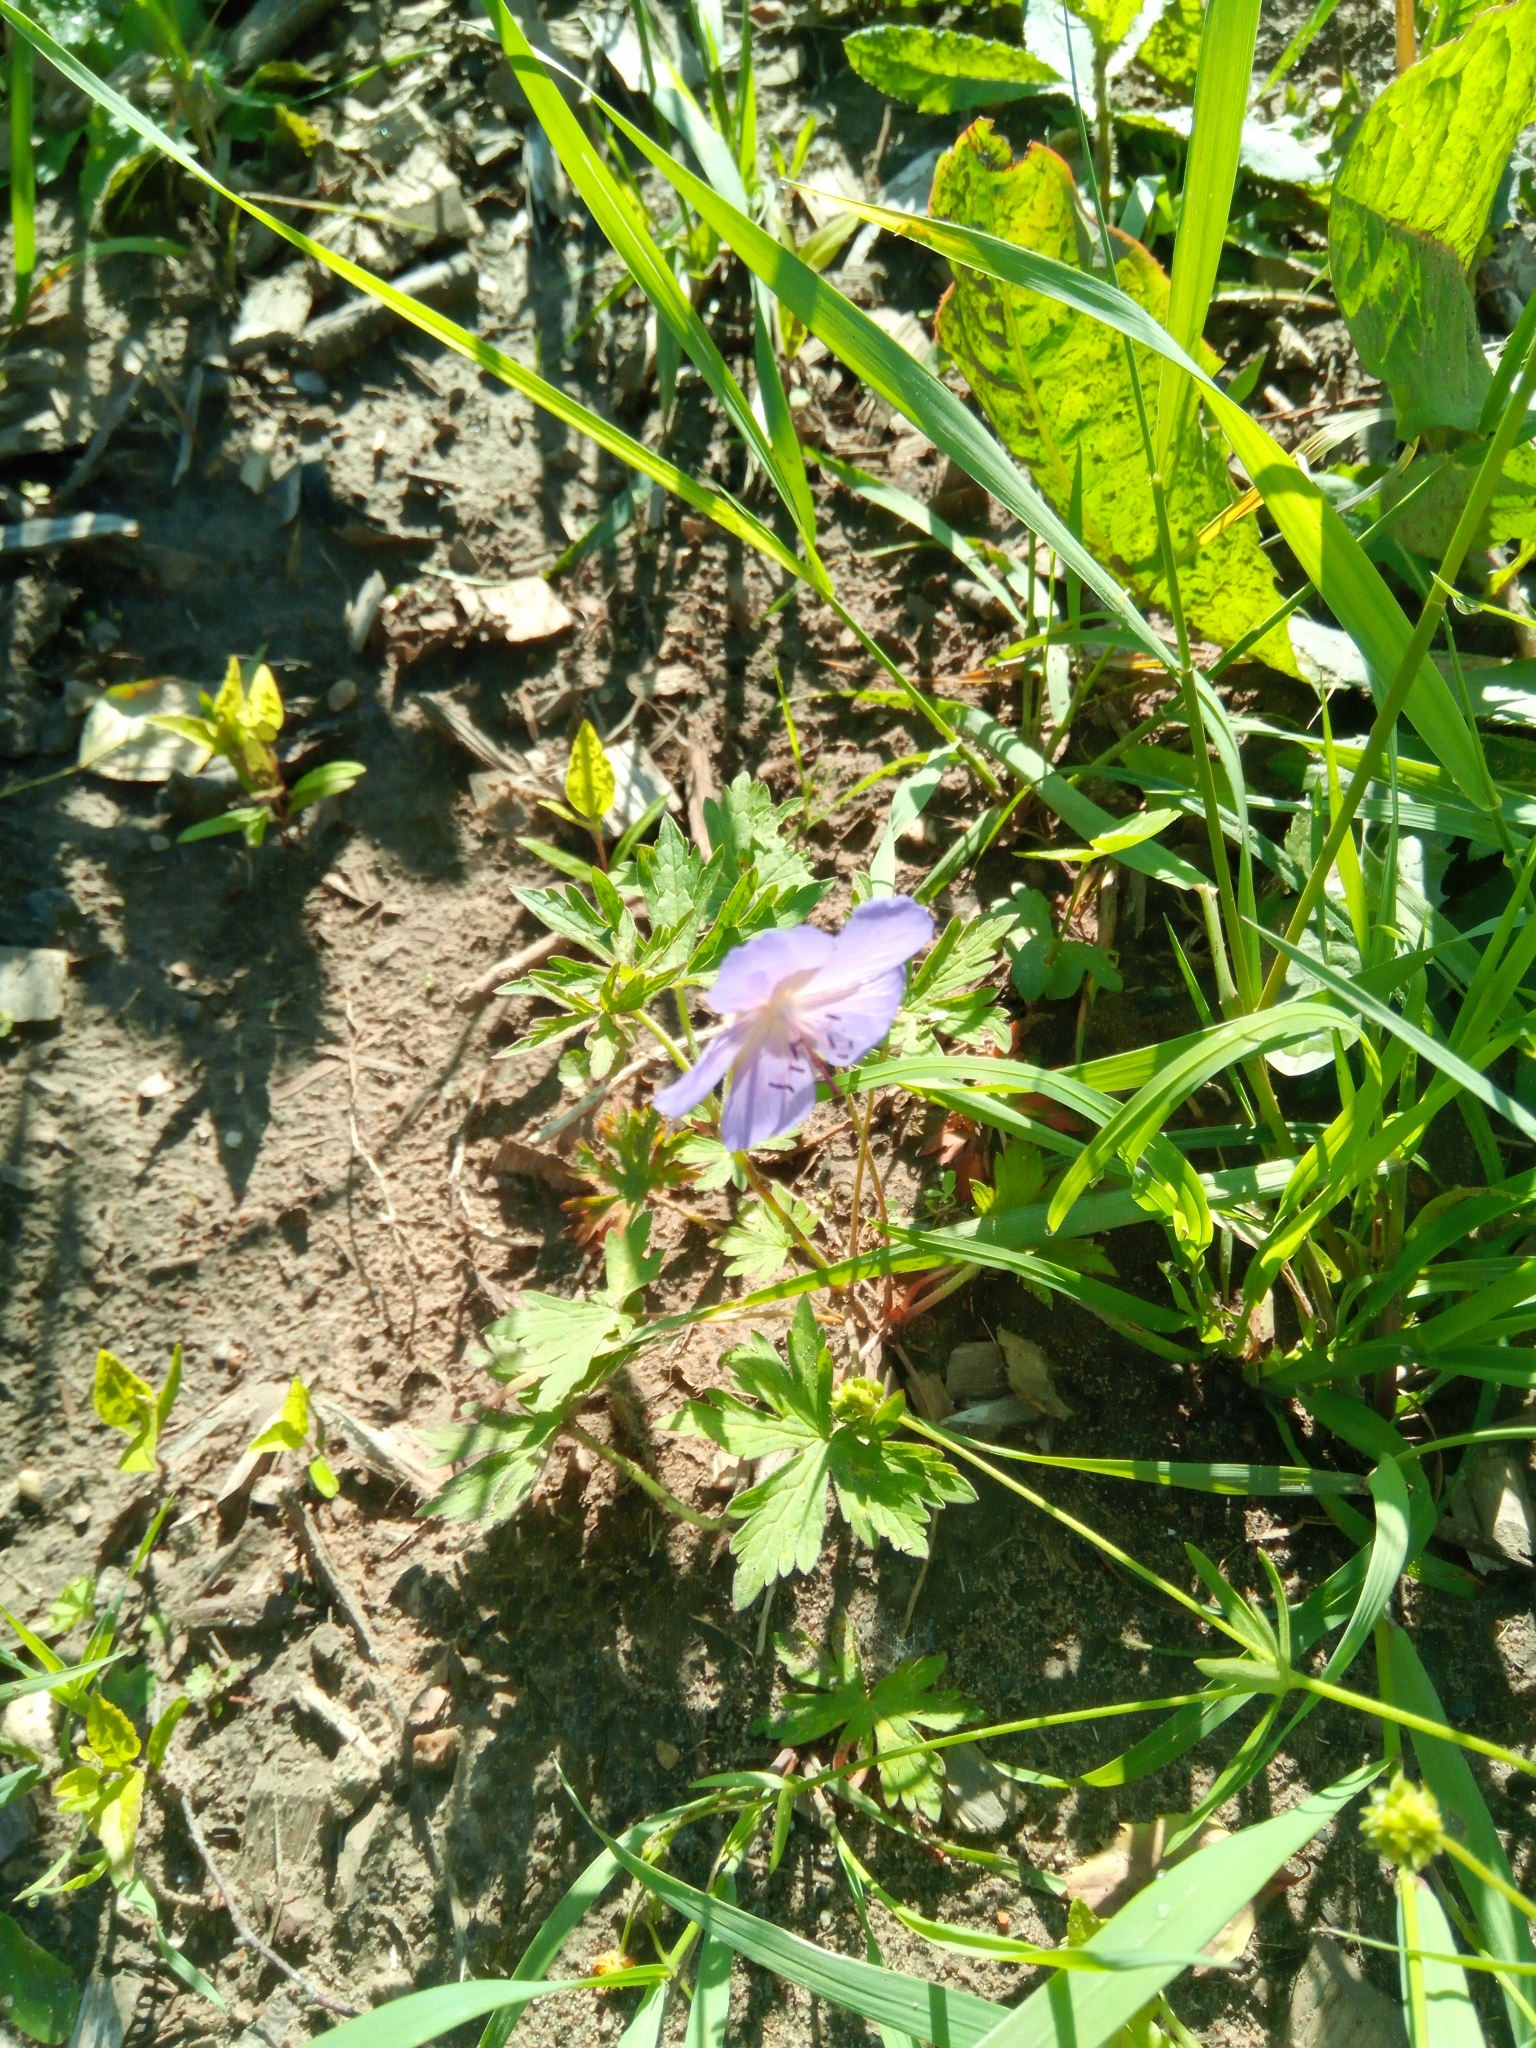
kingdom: Plantae
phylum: Tracheophyta
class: Magnoliopsida
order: Geraniales
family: Geraniaceae
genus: Geranium
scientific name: Geranium pratense
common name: Meadow crane's-bill
